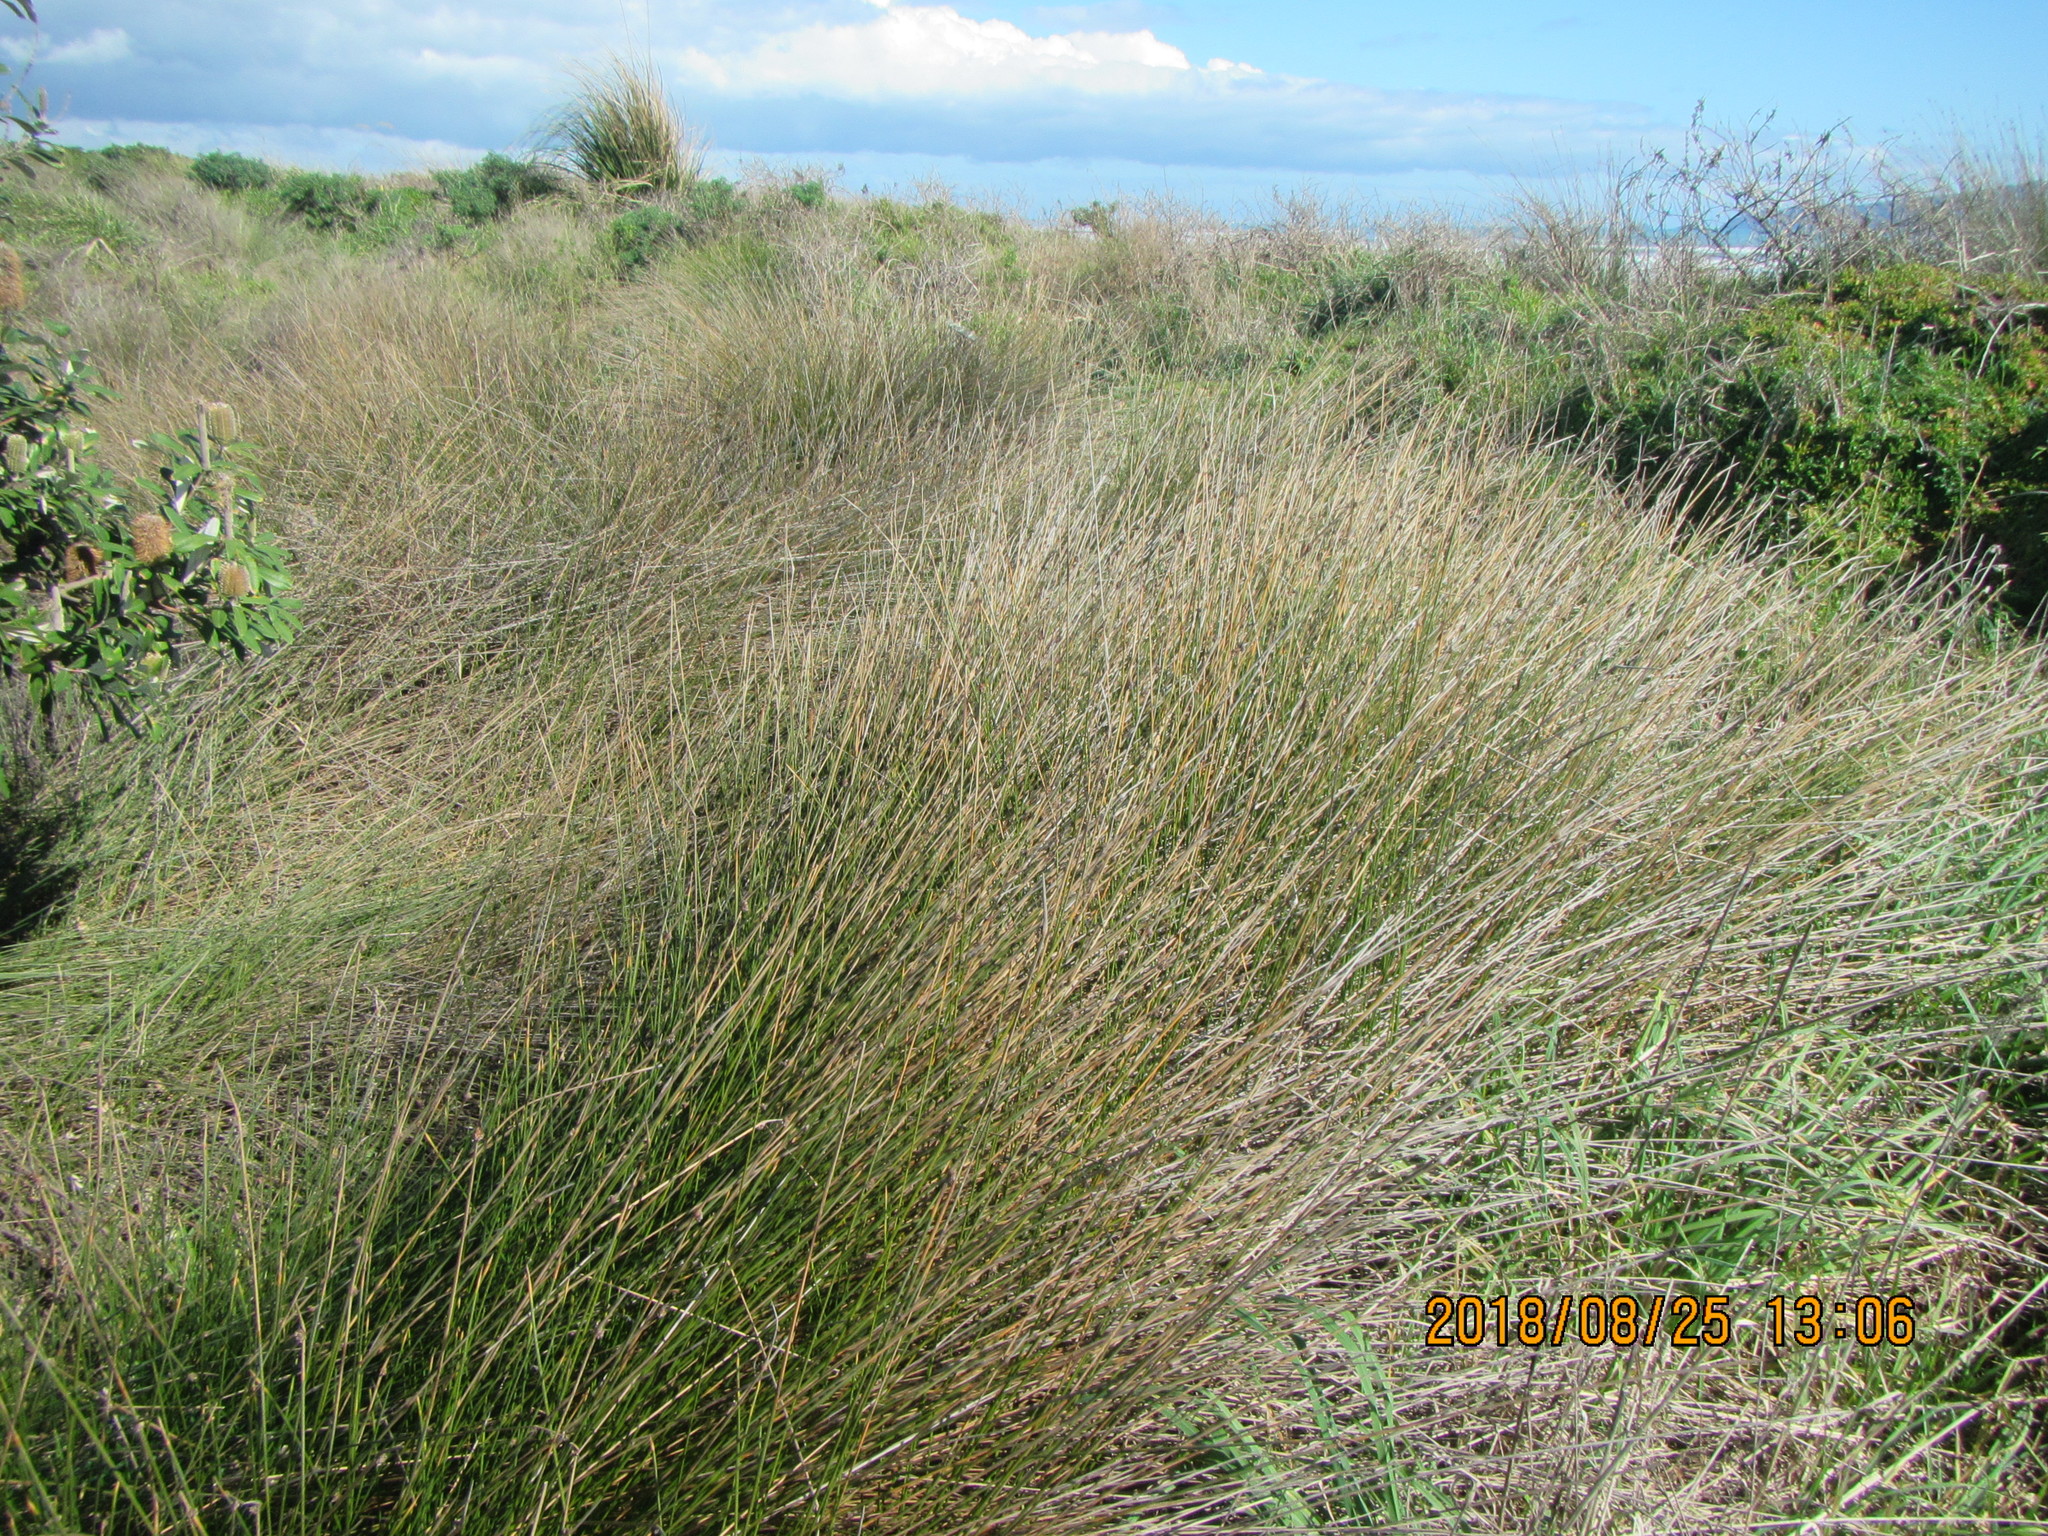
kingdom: Plantae
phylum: Tracheophyta
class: Liliopsida
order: Poales
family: Cyperaceae
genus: Ficinia
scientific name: Ficinia nodosa
